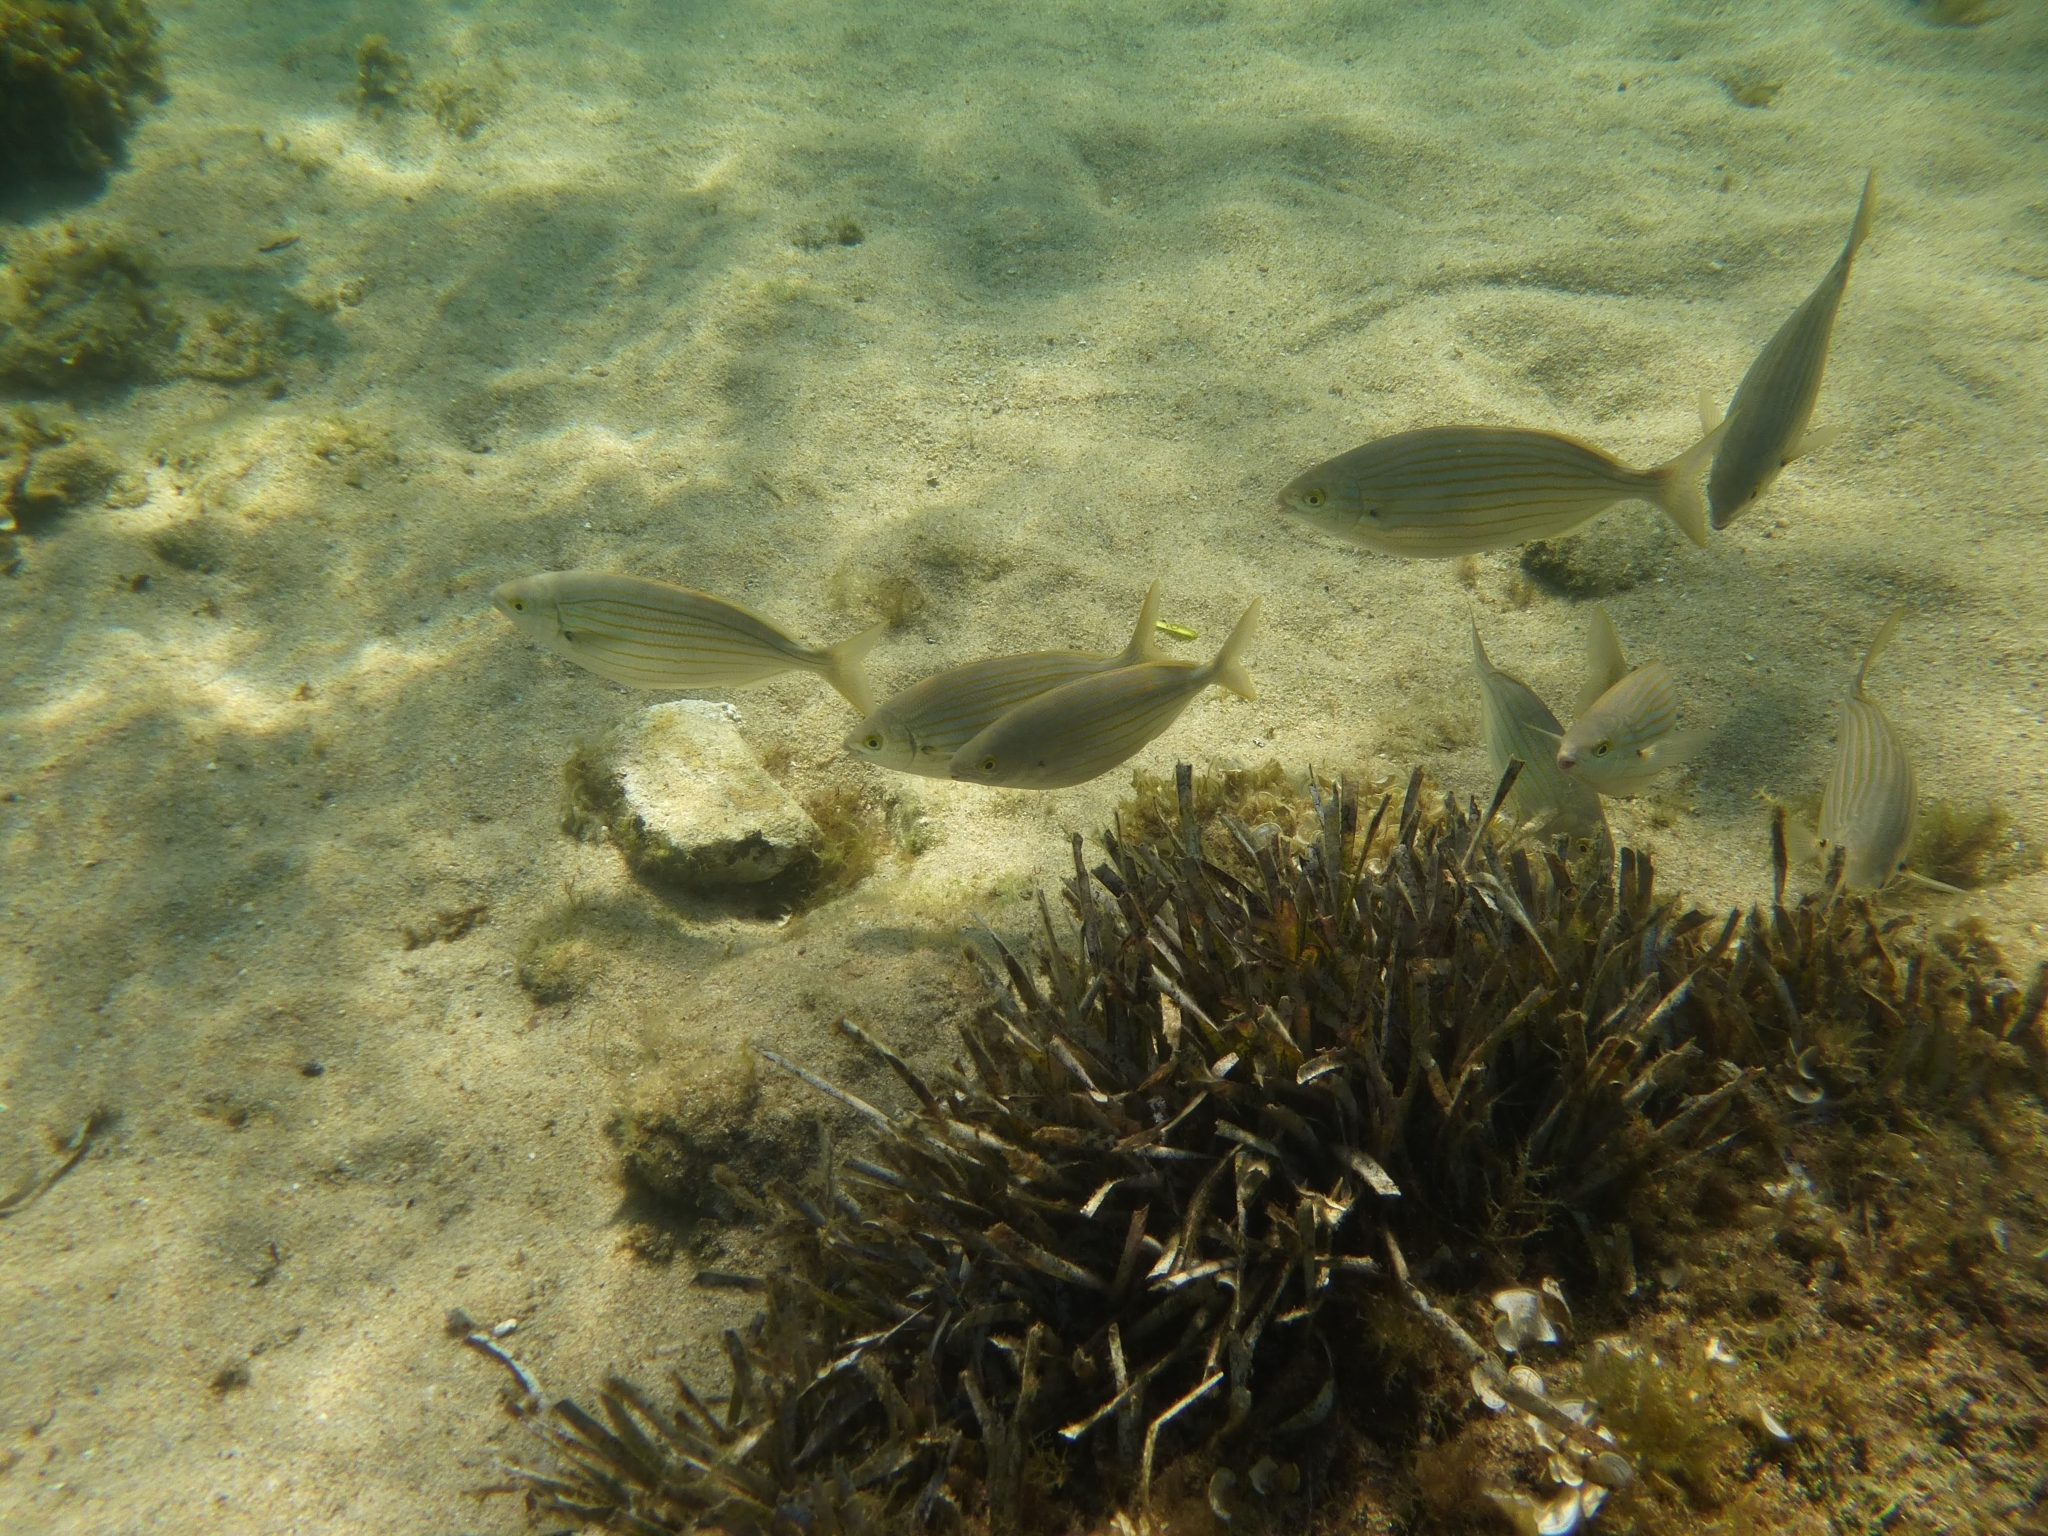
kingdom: Animalia
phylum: Chordata
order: Perciformes
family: Sparidae
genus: Sarpa
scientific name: Sarpa salpa
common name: Salema
